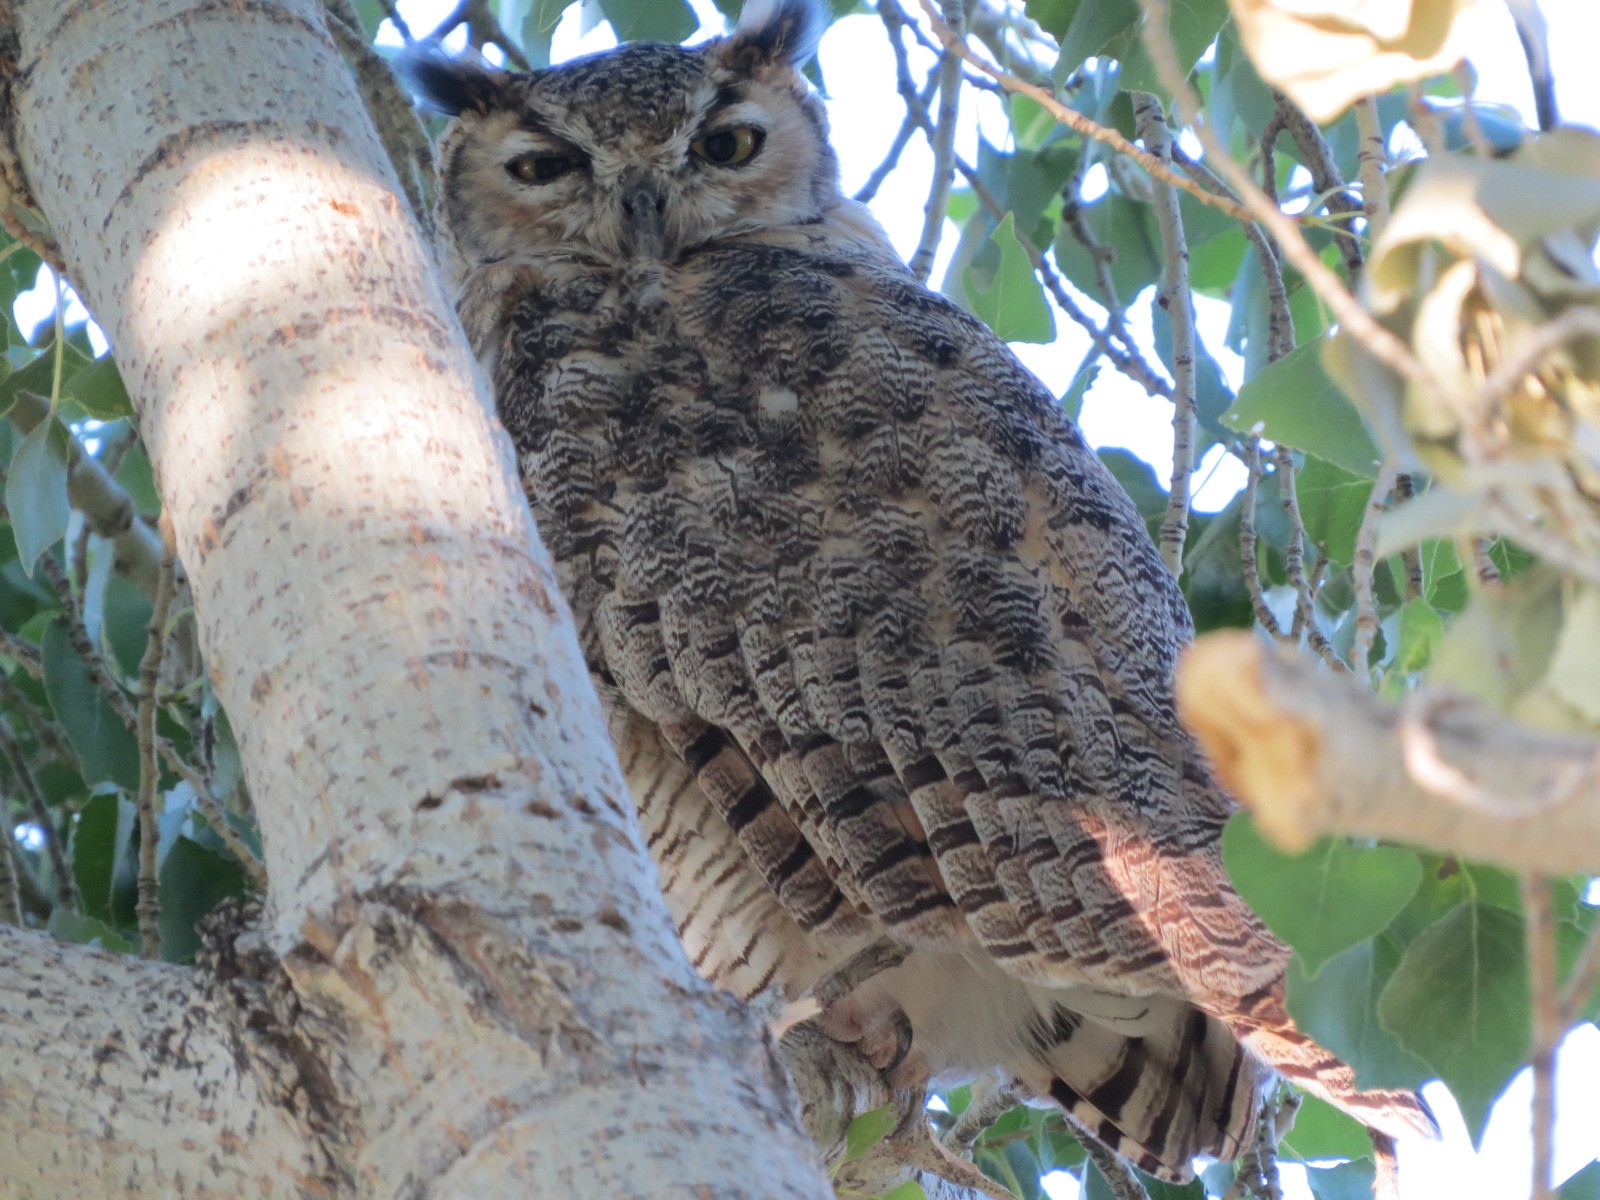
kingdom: Animalia
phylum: Chordata
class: Aves
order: Strigiformes
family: Strigidae
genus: Bubo
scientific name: Bubo virginianus
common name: Great horned owl
